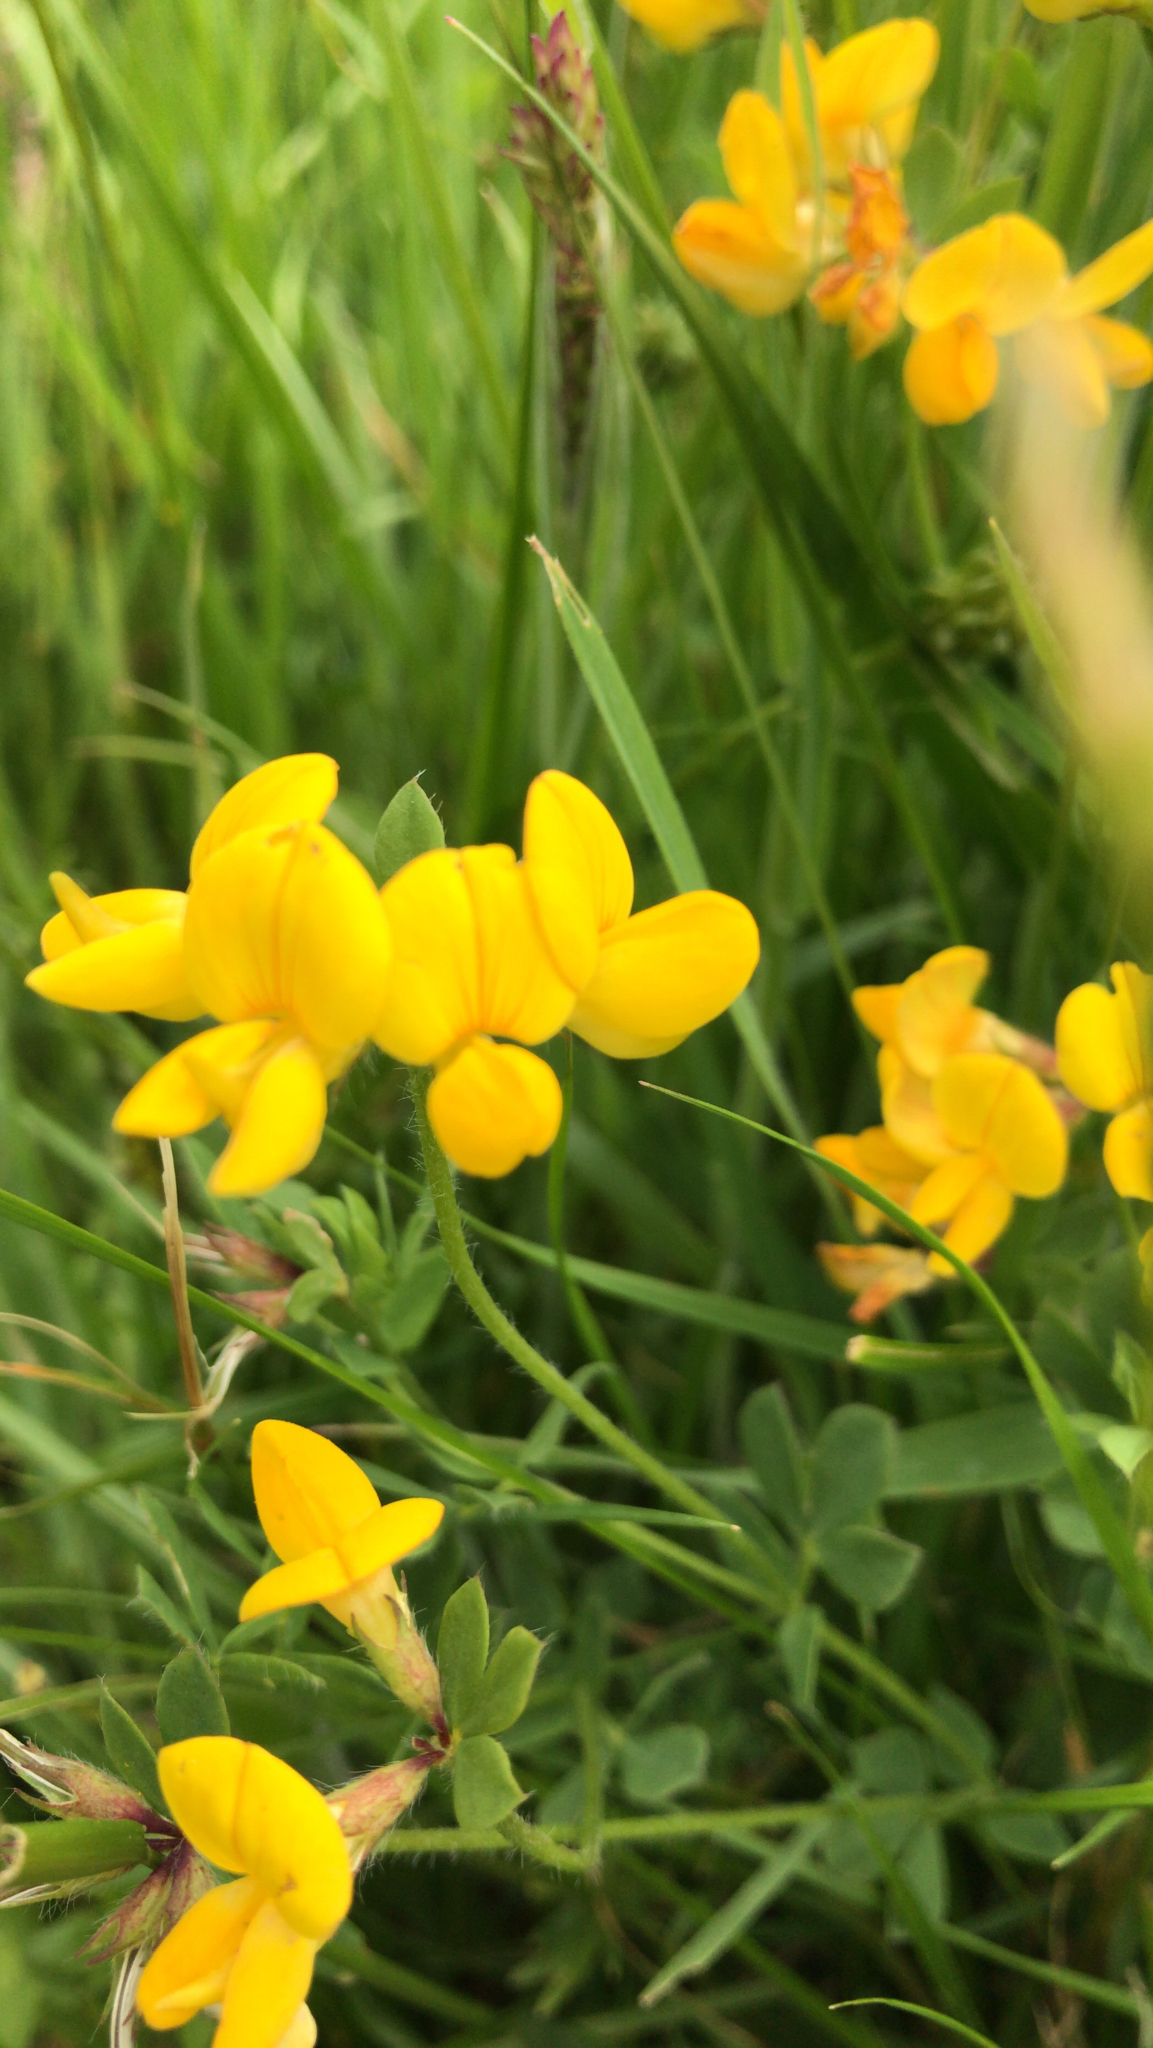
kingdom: Plantae
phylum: Tracheophyta
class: Magnoliopsida
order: Fabales
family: Fabaceae
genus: Lotus
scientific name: Lotus corniculatus
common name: Common bird's-foot-trefoil
